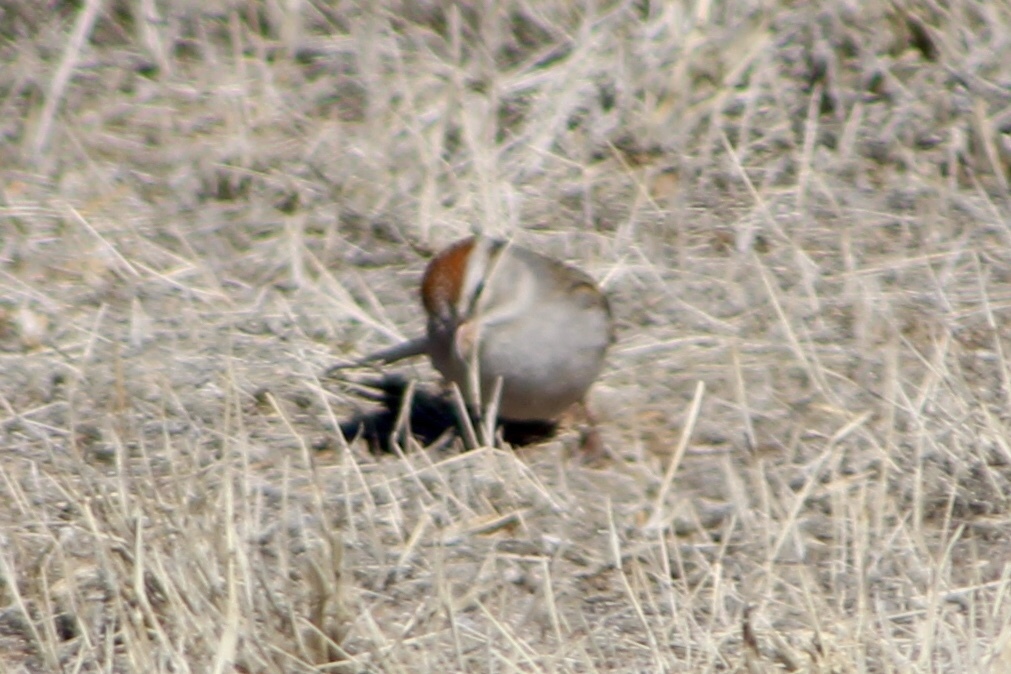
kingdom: Animalia
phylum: Chordata
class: Aves
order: Passeriformes
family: Passerellidae
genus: Spizella
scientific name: Spizella passerina
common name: Chipping sparrow
